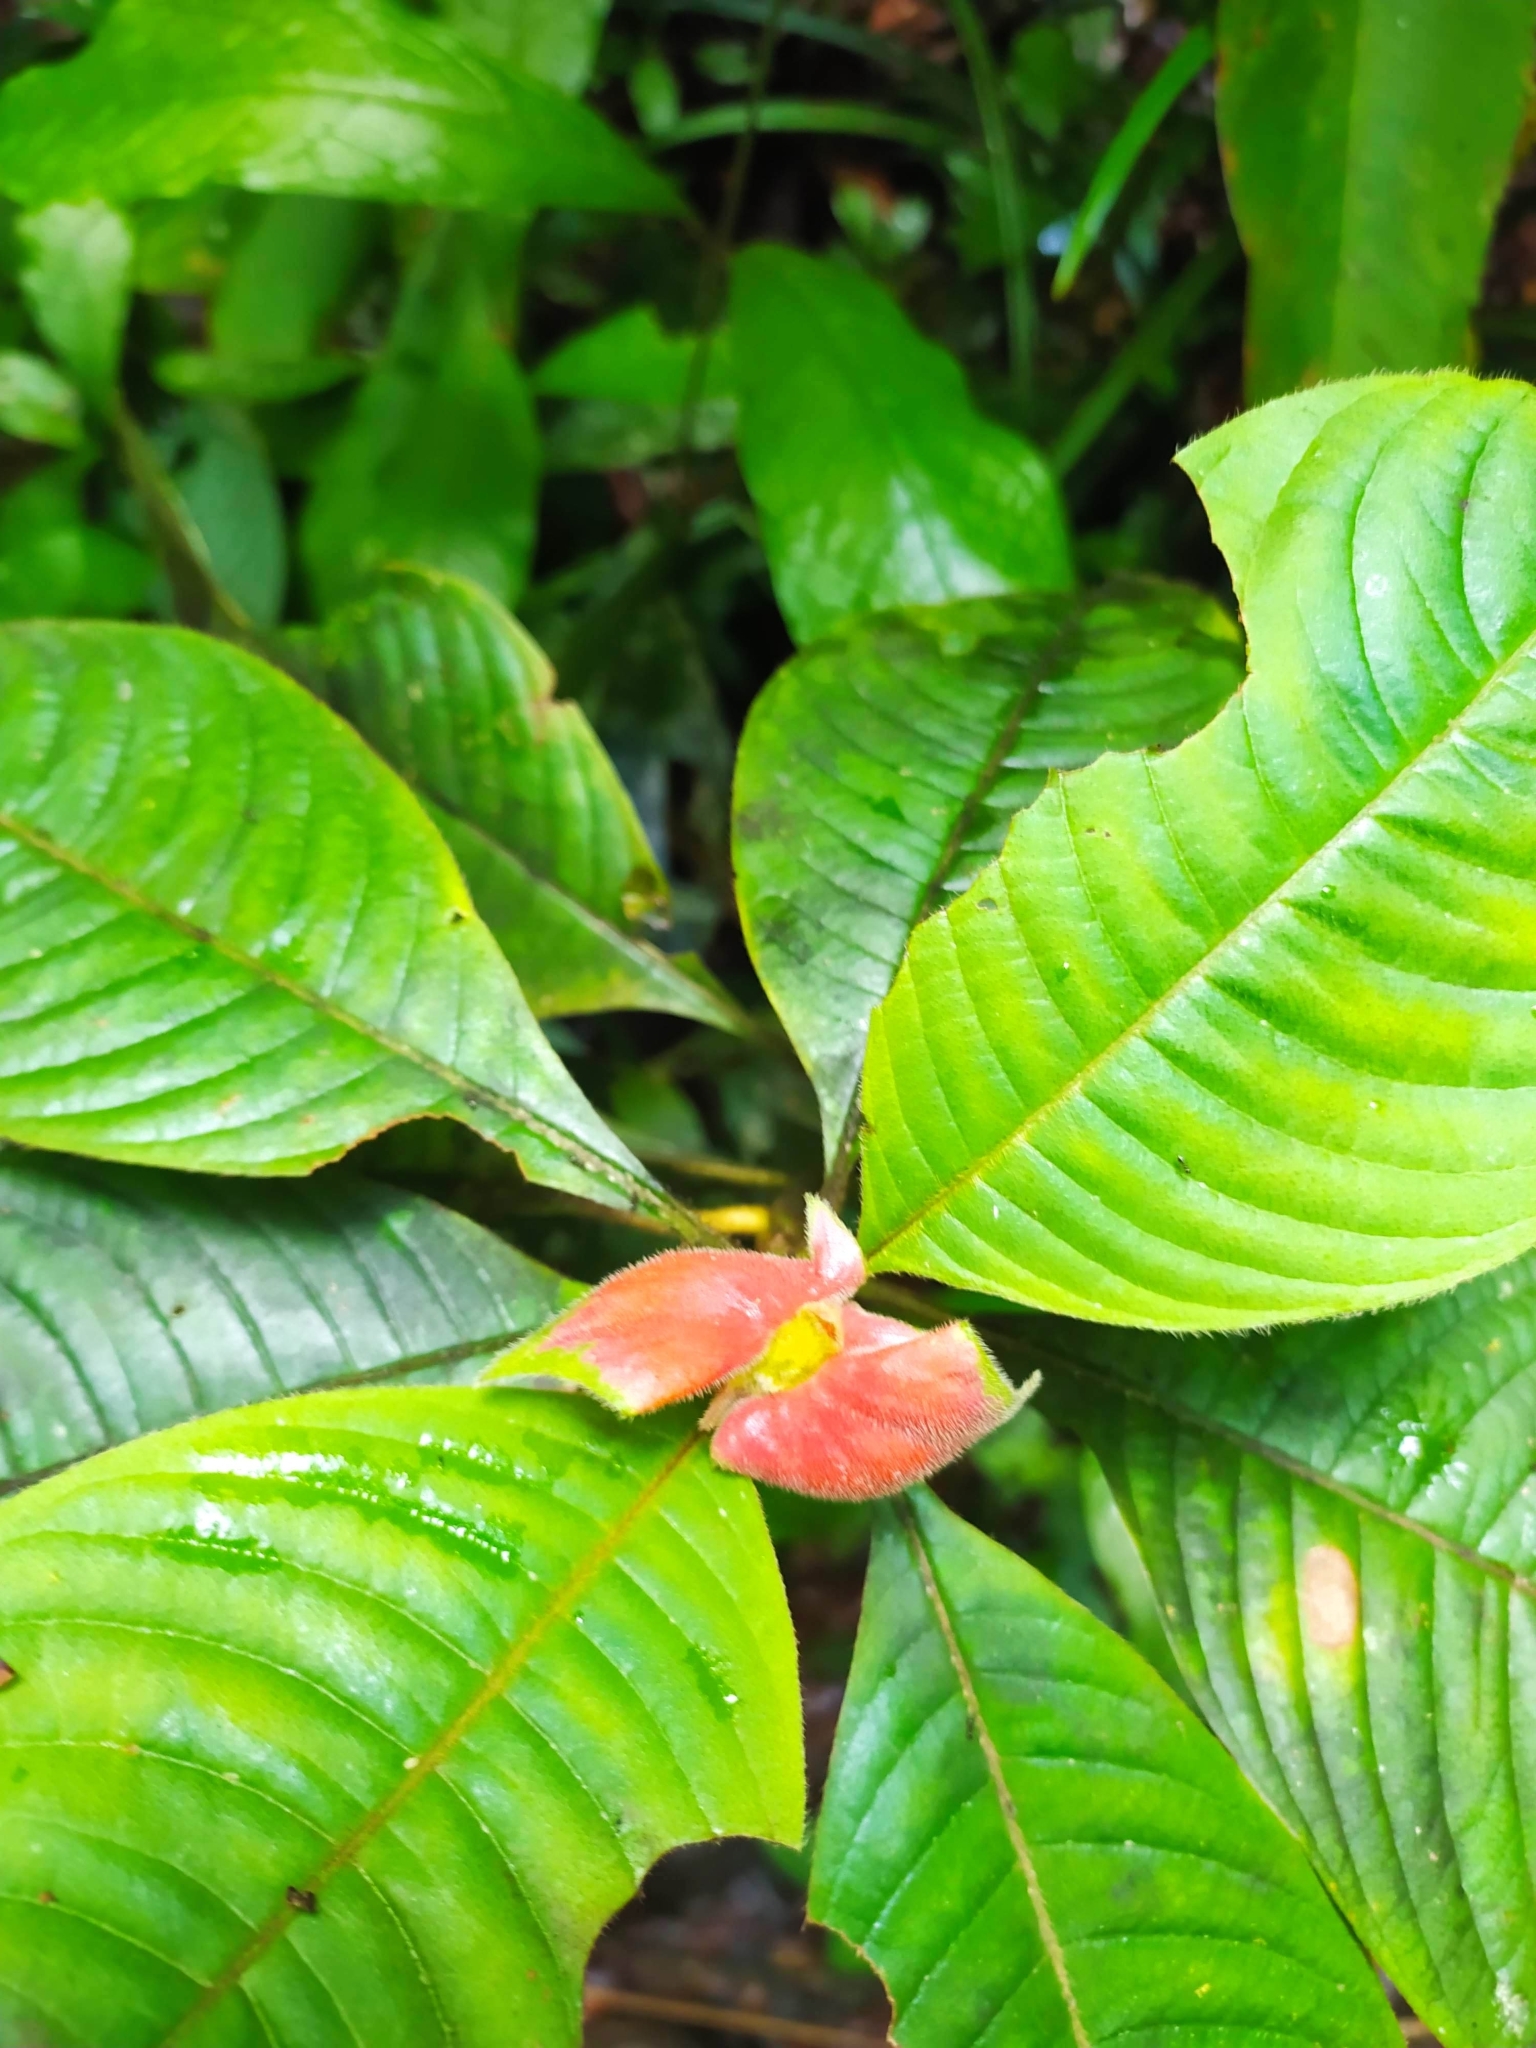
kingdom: Plantae
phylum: Tracheophyta
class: Magnoliopsida
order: Gentianales
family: Rubiaceae
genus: Palicourea
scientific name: Palicourea tomentosa
